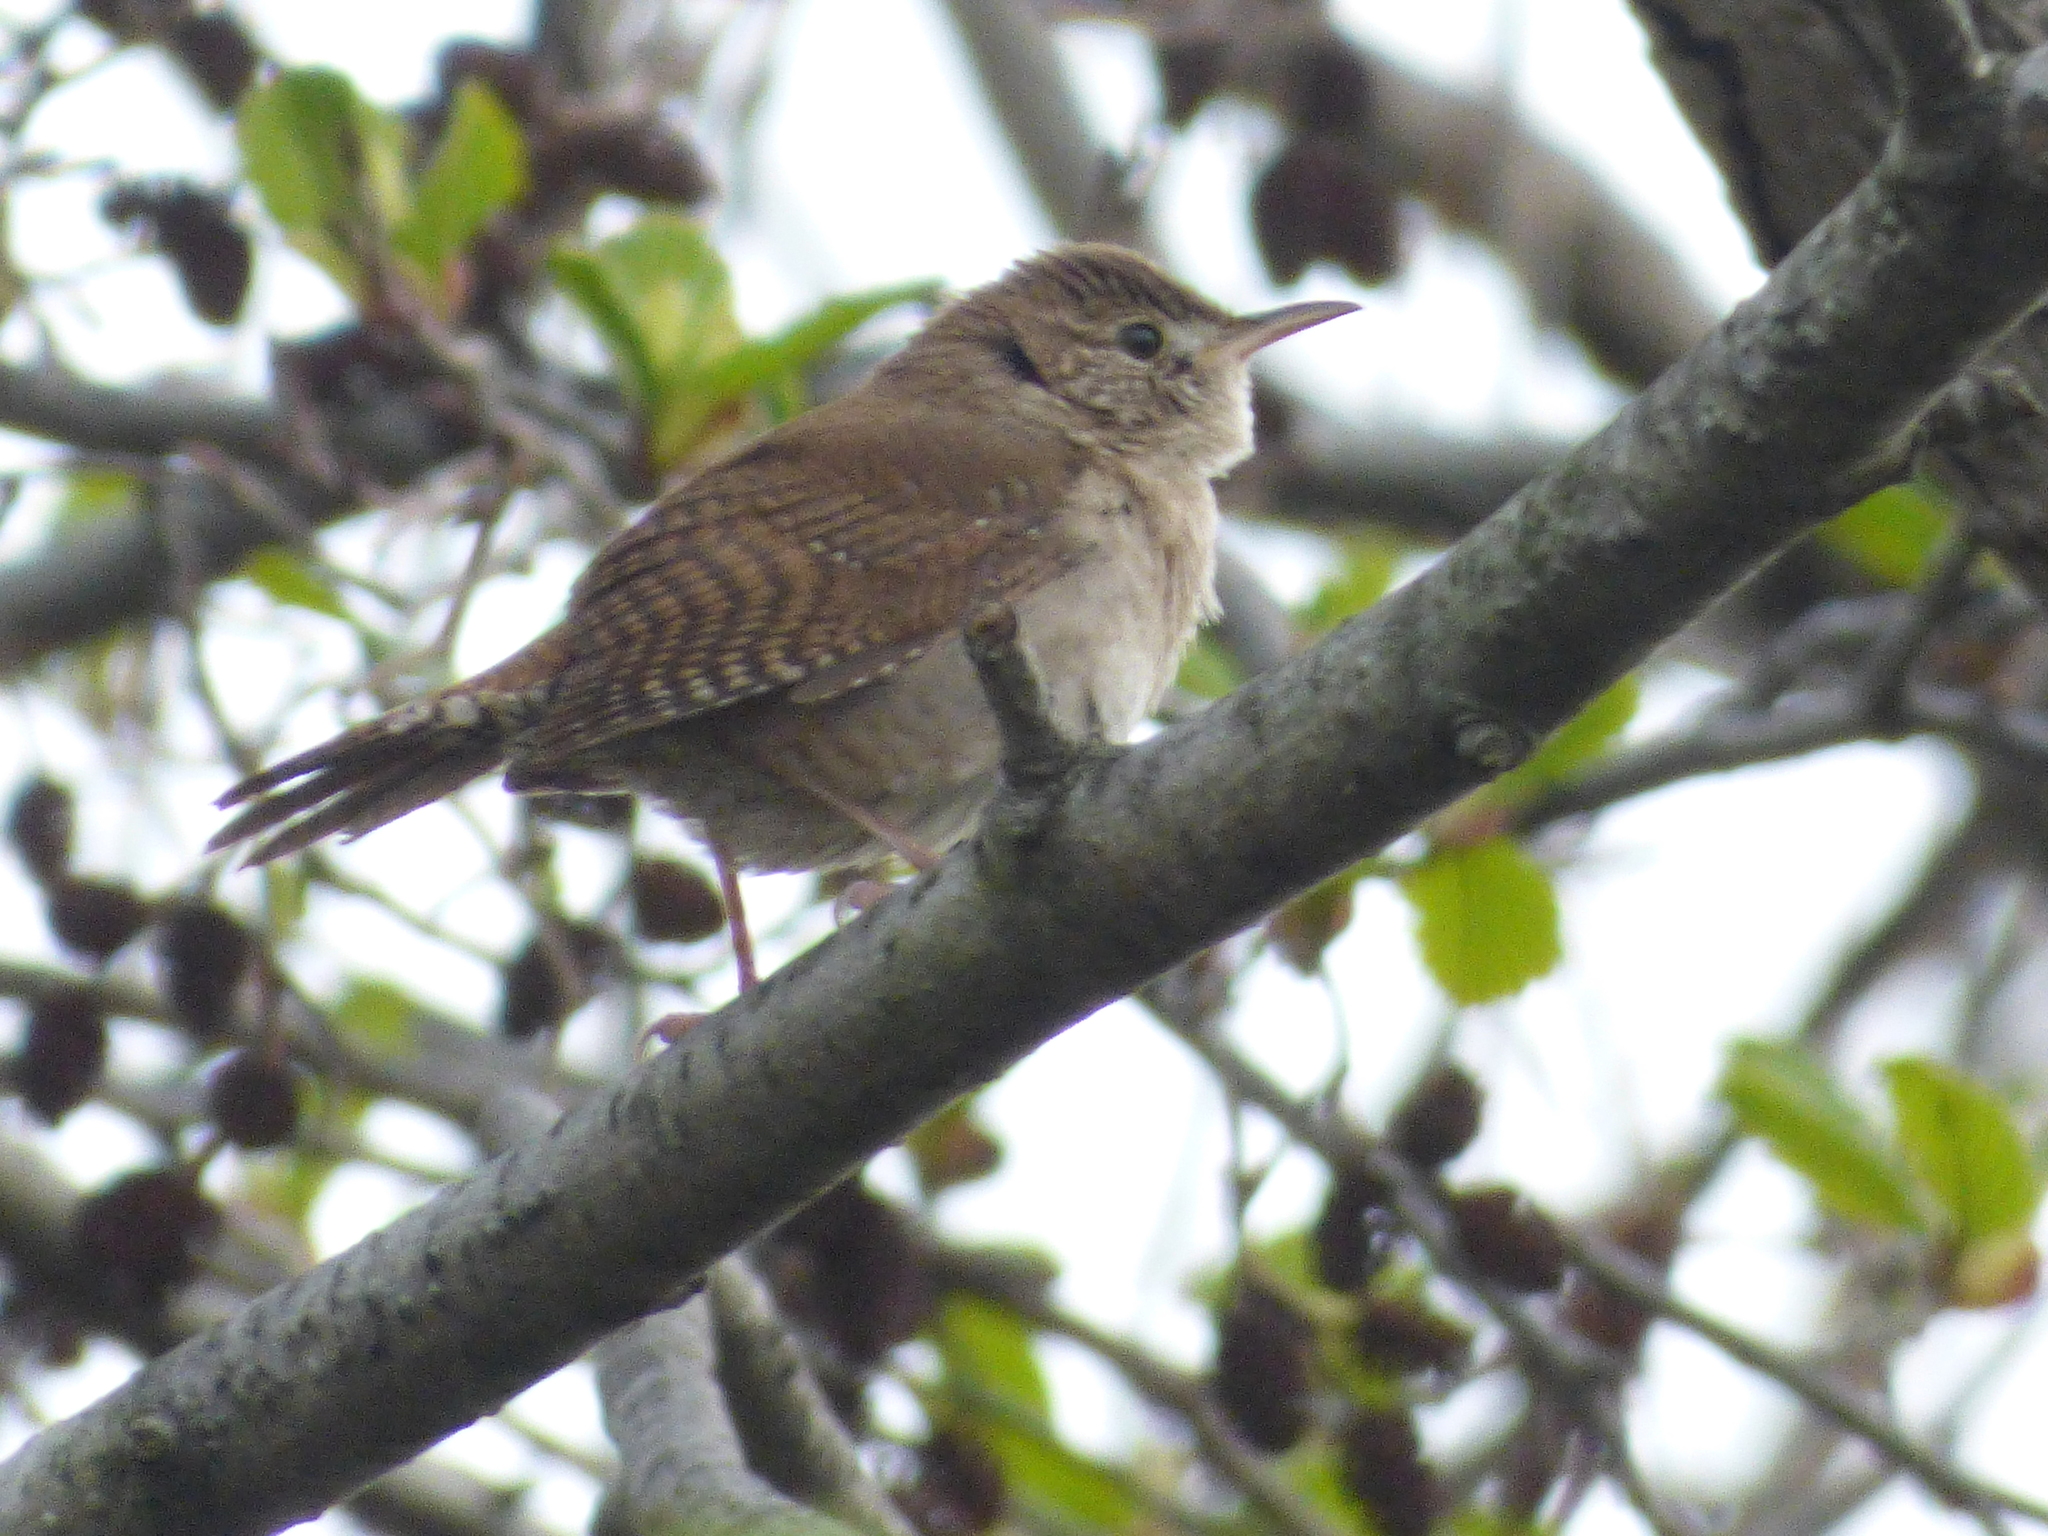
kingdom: Animalia
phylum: Chordata
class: Aves
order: Passeriformes
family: Troglodytidae
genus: Troglodytes
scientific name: Troglodytes aedon
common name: House wren
